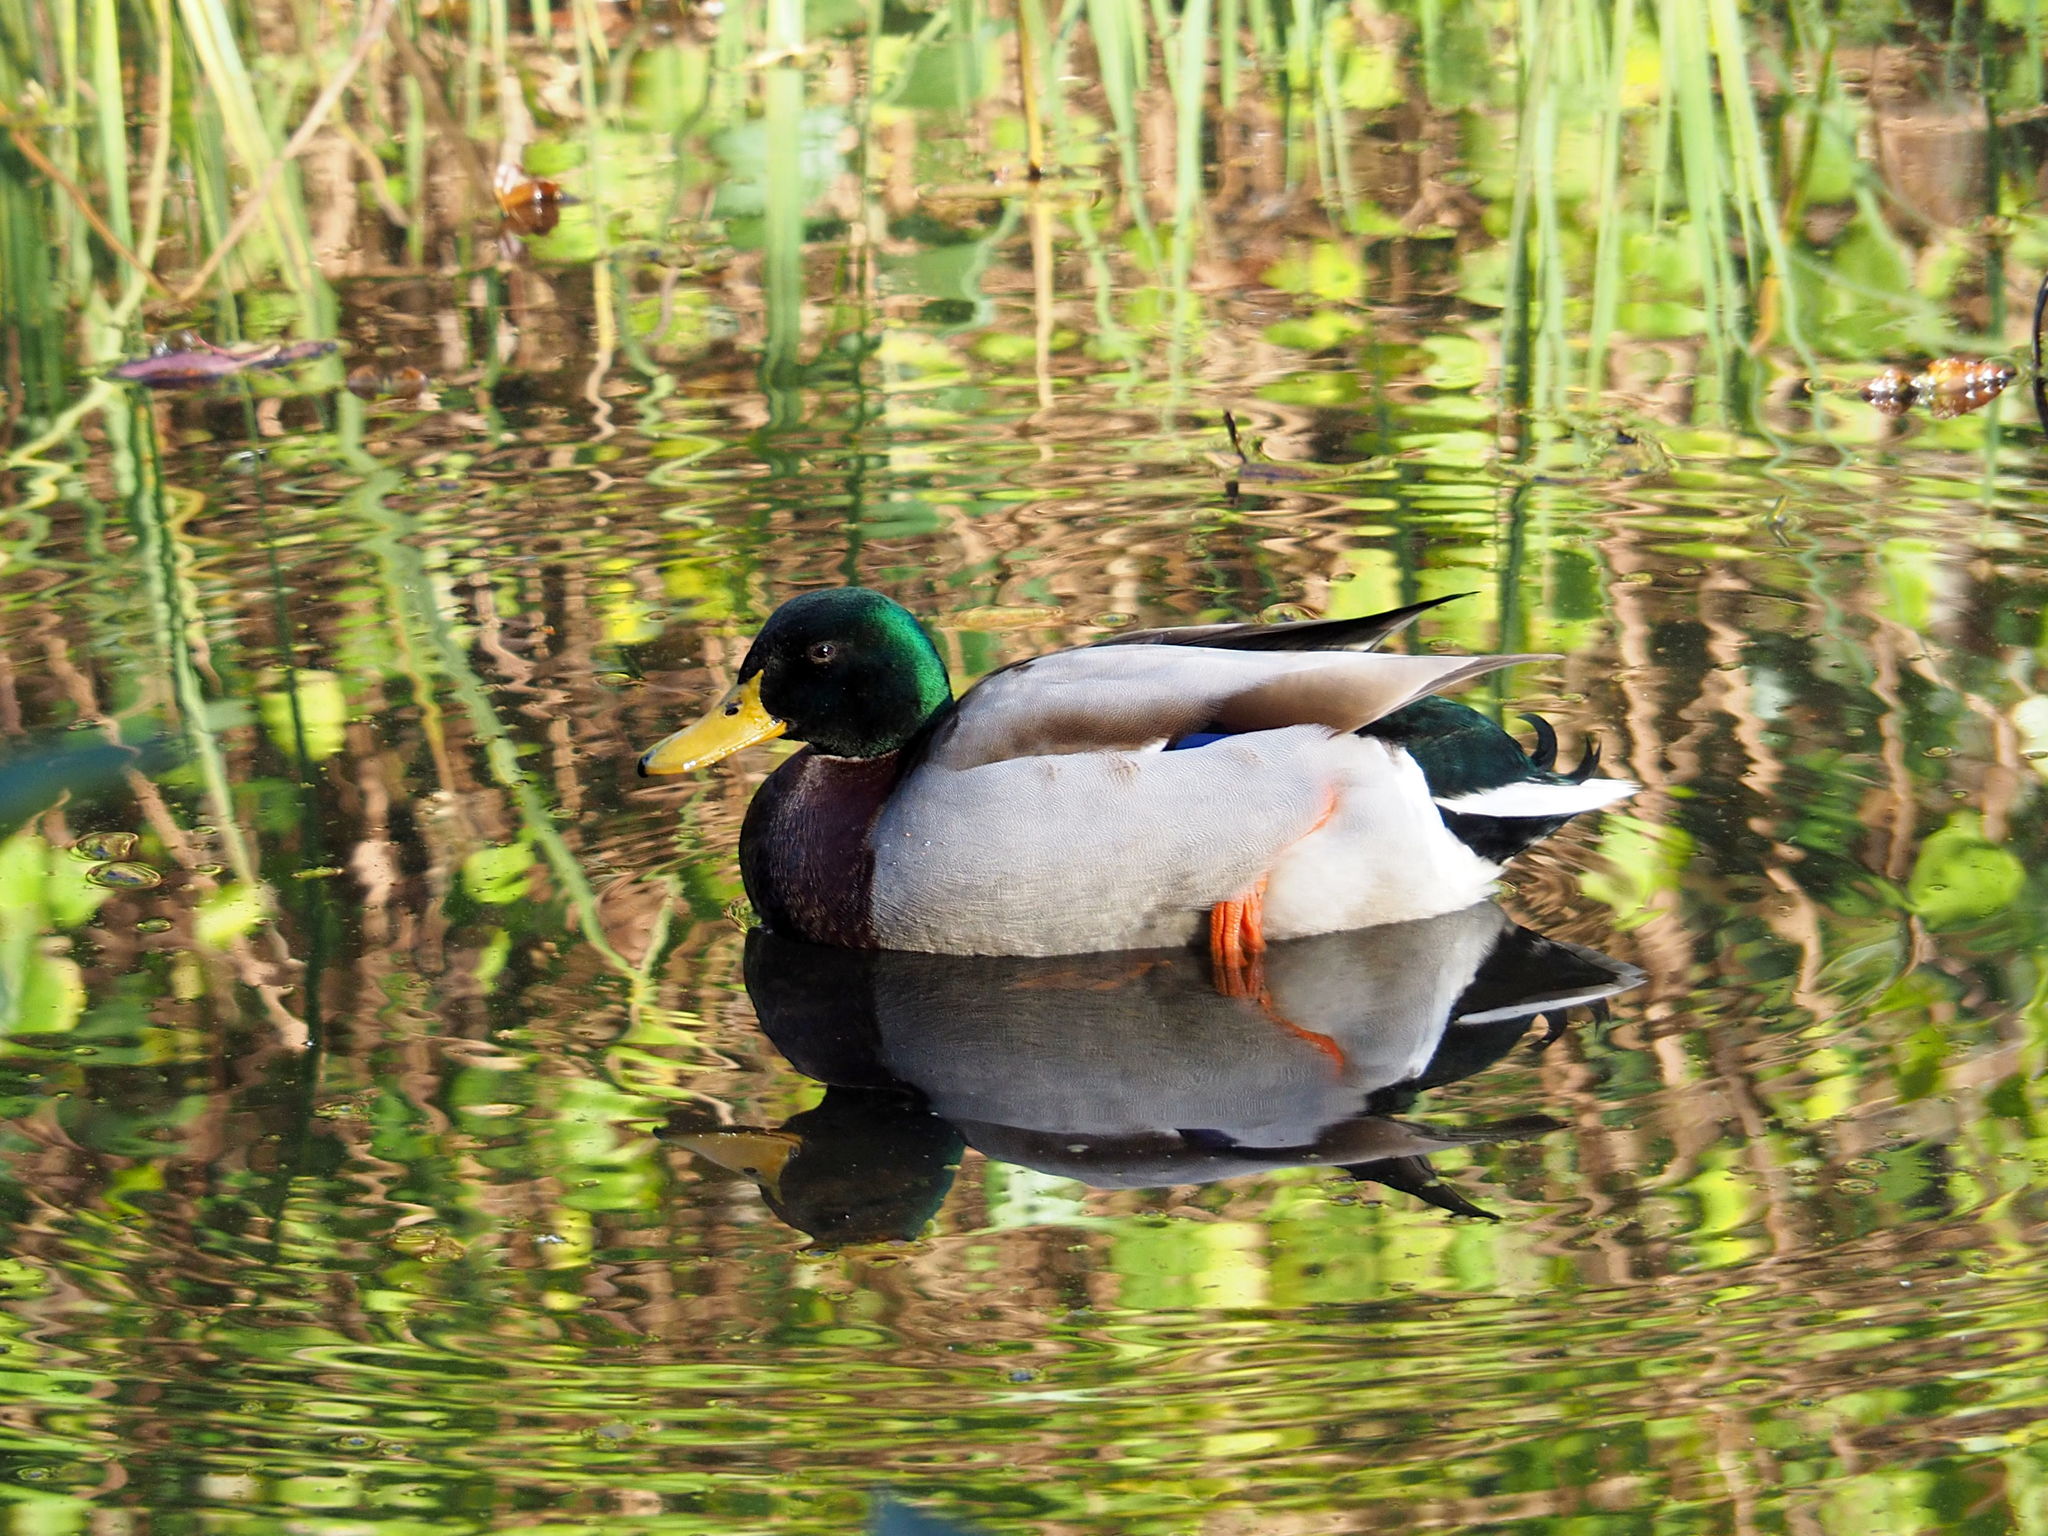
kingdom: Animalia
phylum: Chordata
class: Aves
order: Anseriformes
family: Anatidae
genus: Anas
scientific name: Anas platyrhynchos
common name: Mallard
